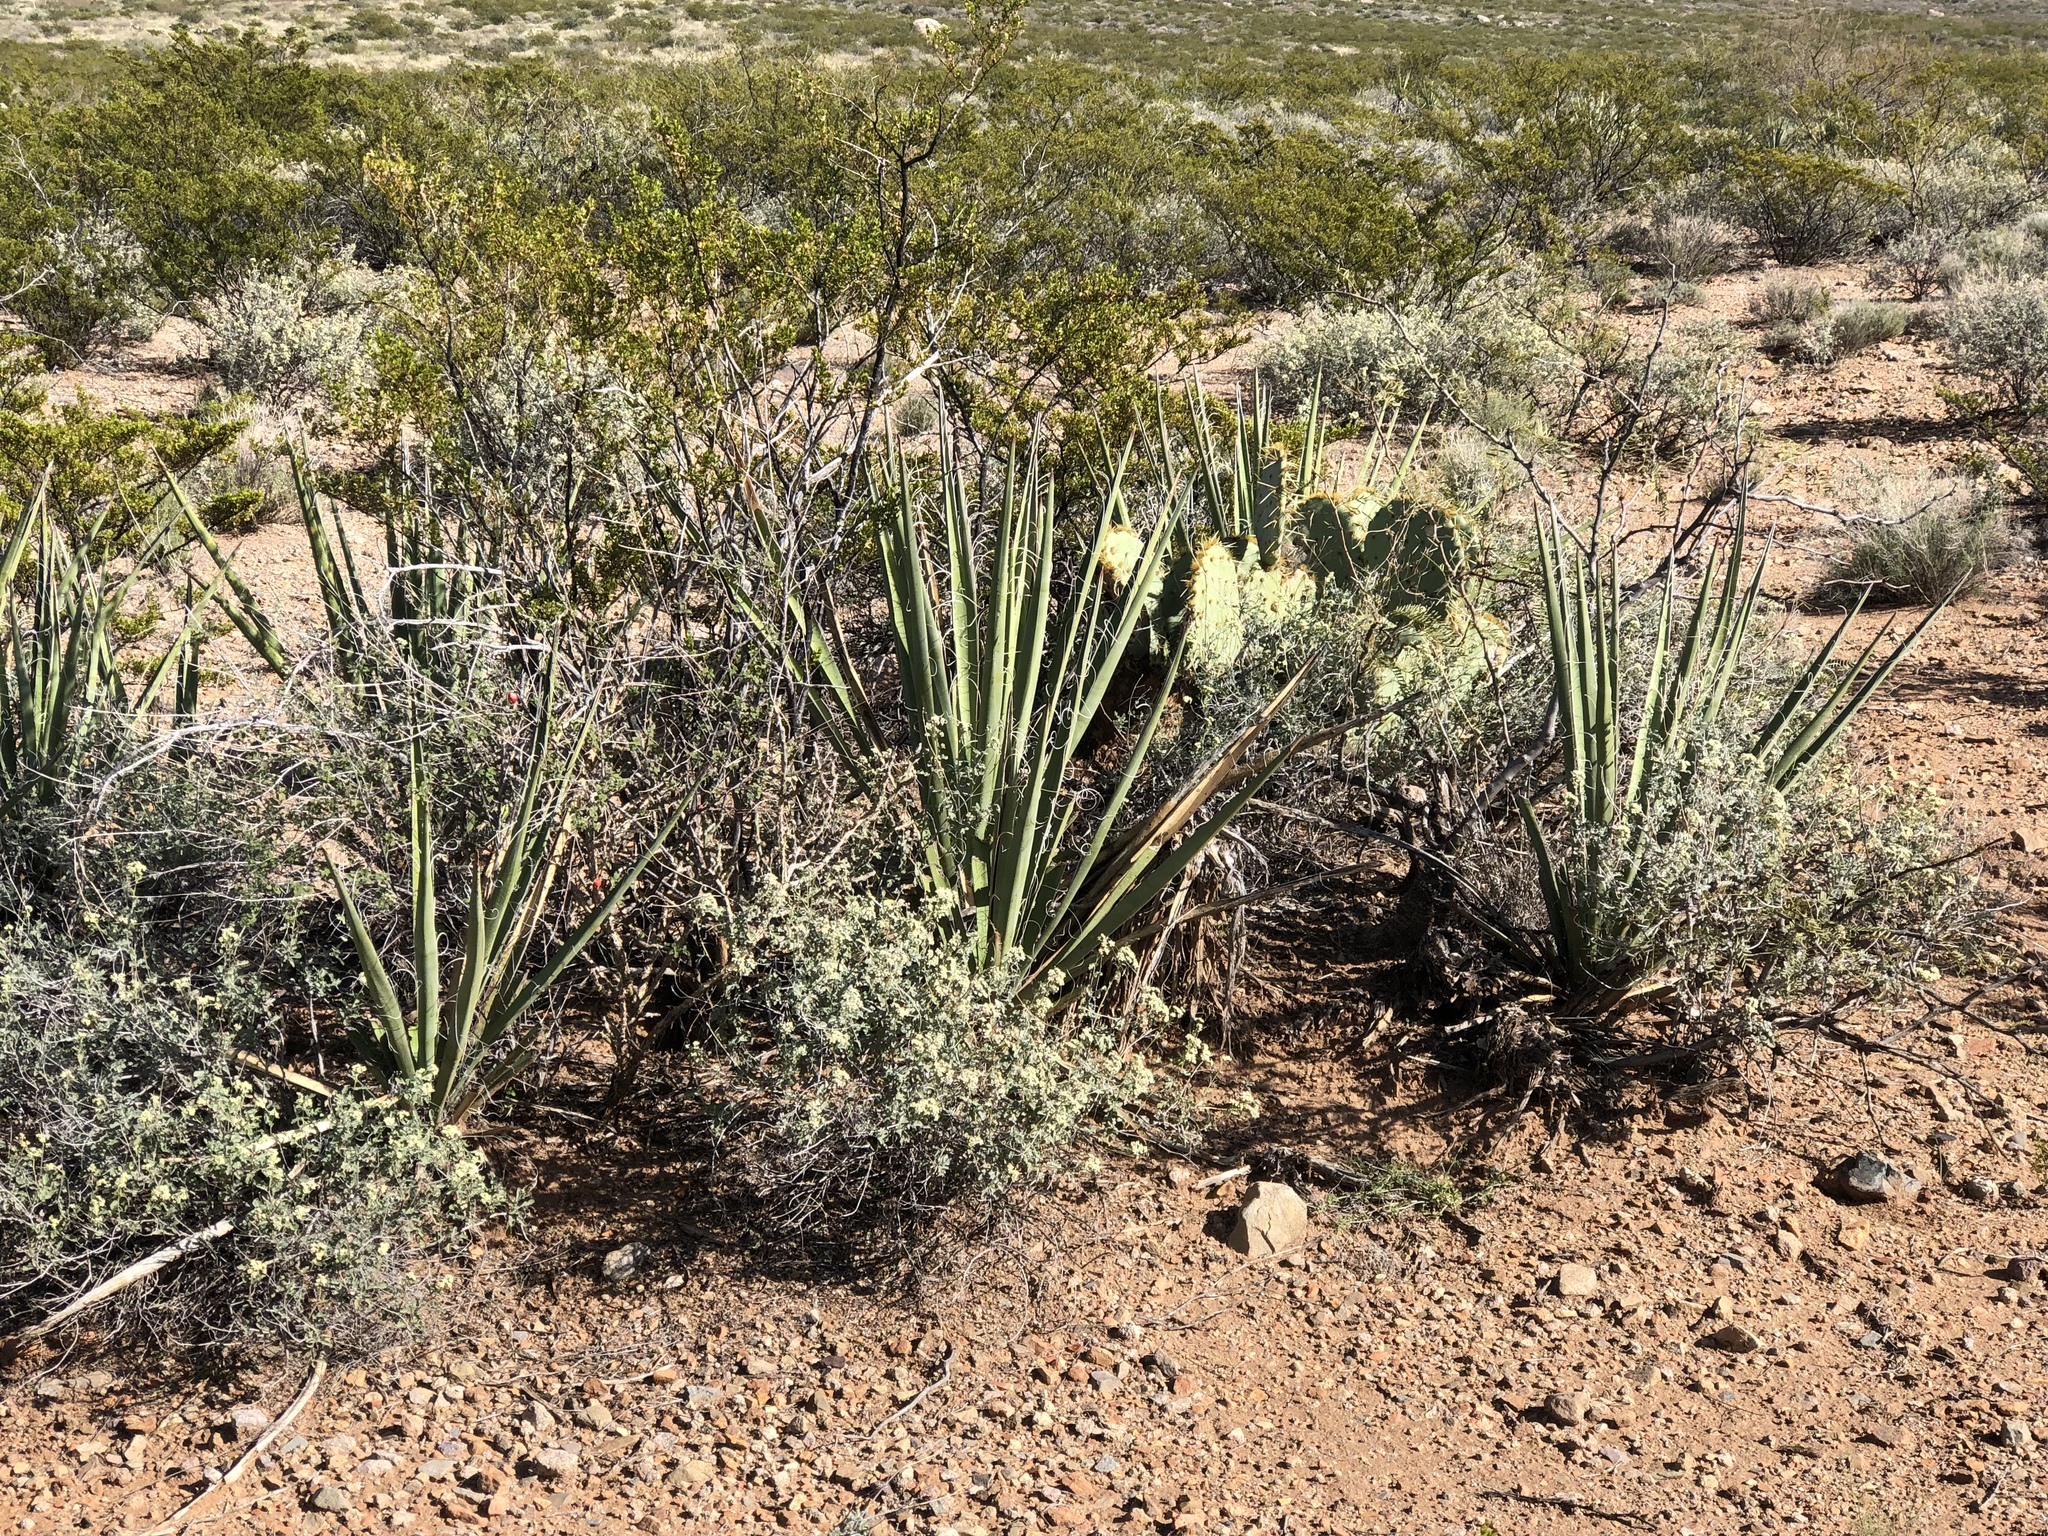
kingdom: Plantae
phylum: Tracheophyta
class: Liliopsida
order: Asparagales
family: Asparagaceae
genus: Yucca
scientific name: Yucca baccata
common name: Banana yucca
